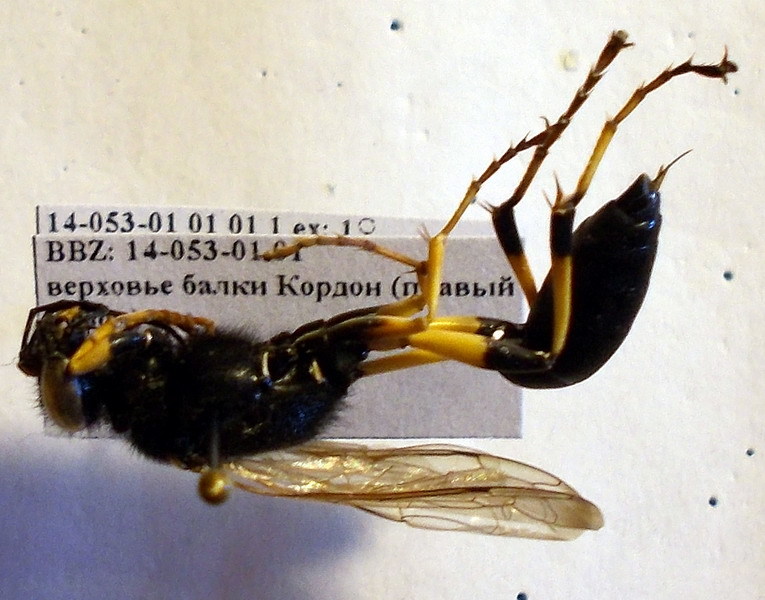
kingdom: Animalia
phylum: Arthropoda
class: Insecta
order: Hymenoptera
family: Sphecidae
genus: Sceliphron
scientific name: Sceliphron destillatorium
